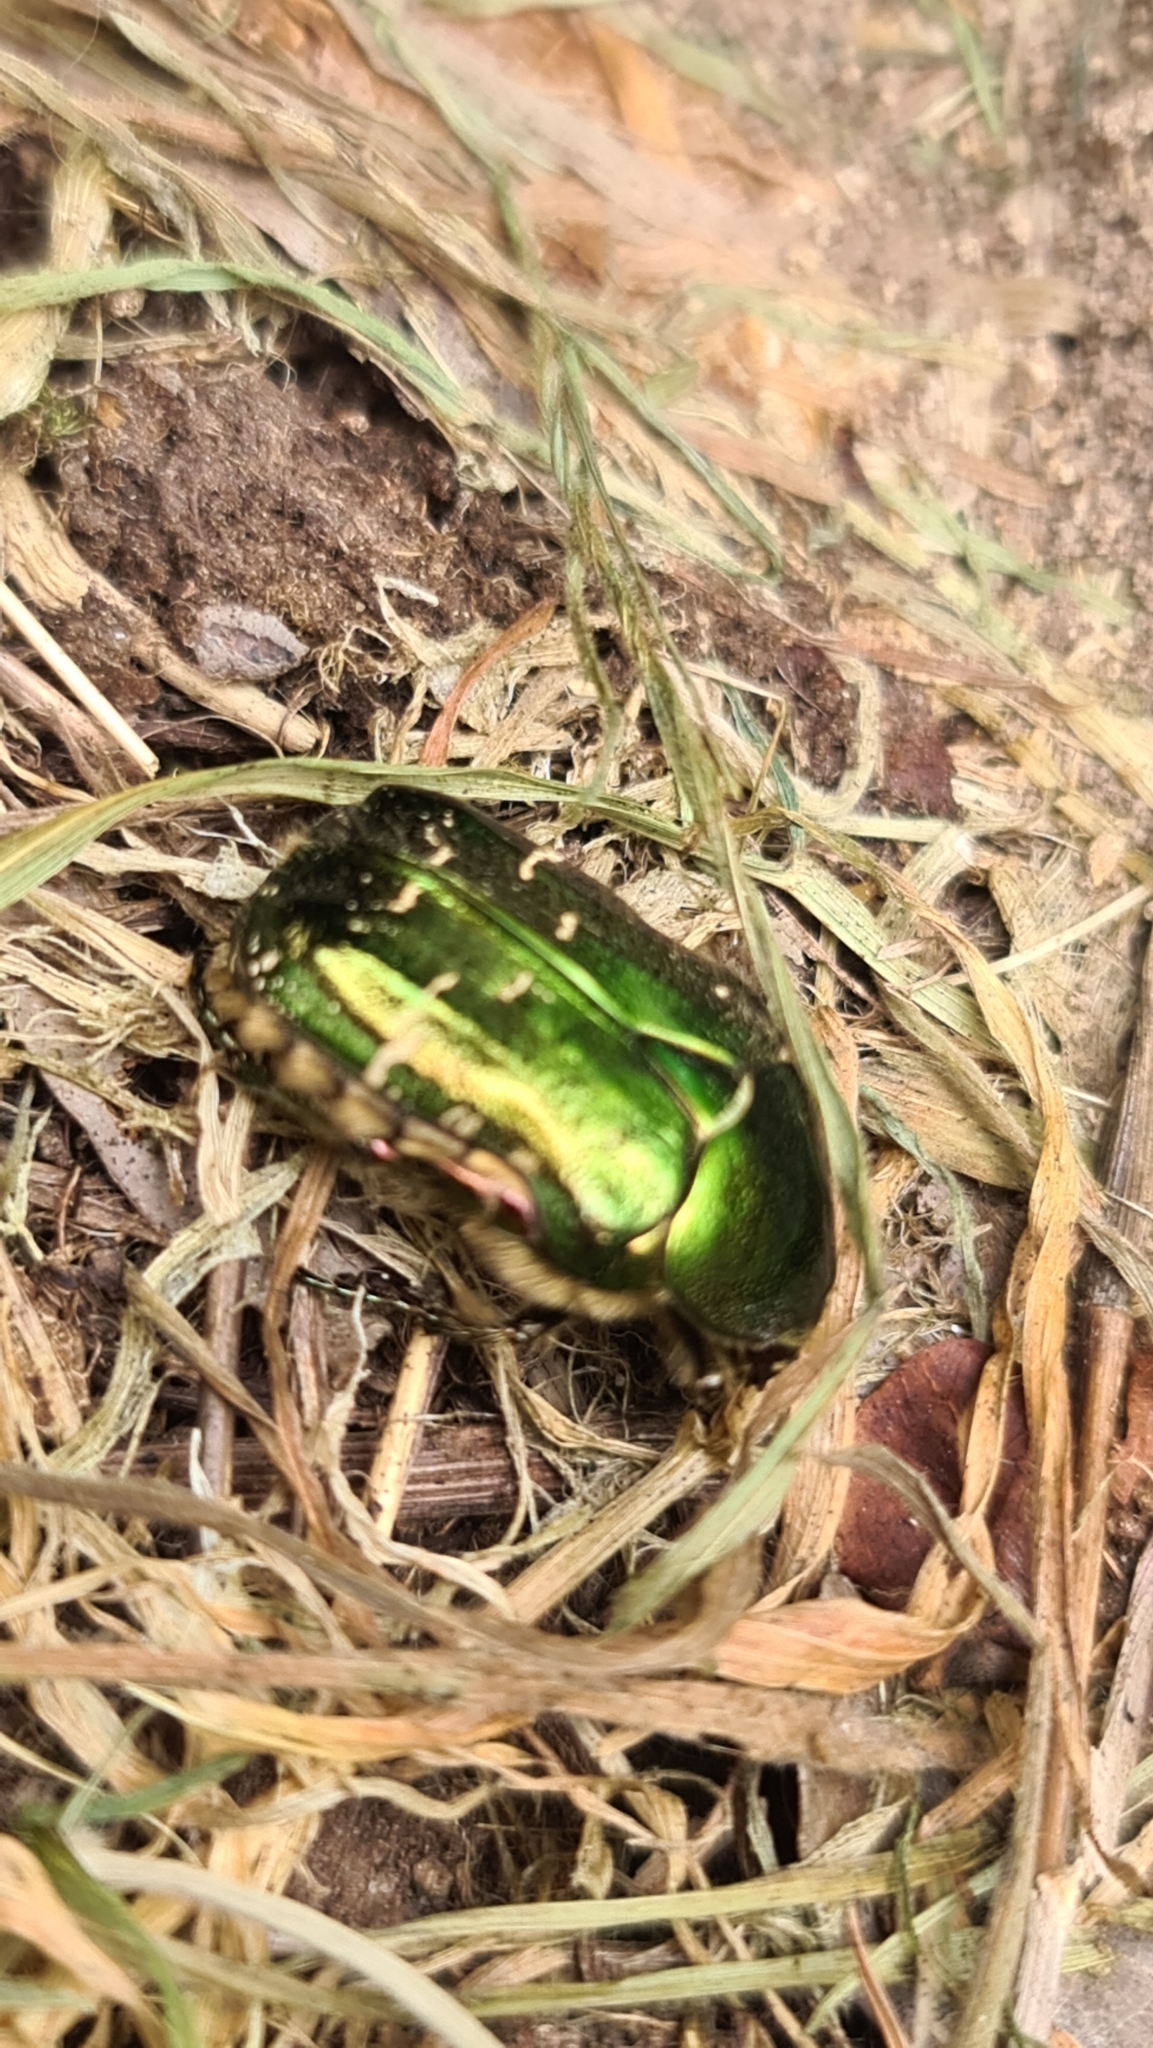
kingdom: Animalia
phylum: Arthropoda
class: Insecta
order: Coleoptera
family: Scarabaeidae
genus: Cetonia
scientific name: Cetonia aurata
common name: Rose chafer
